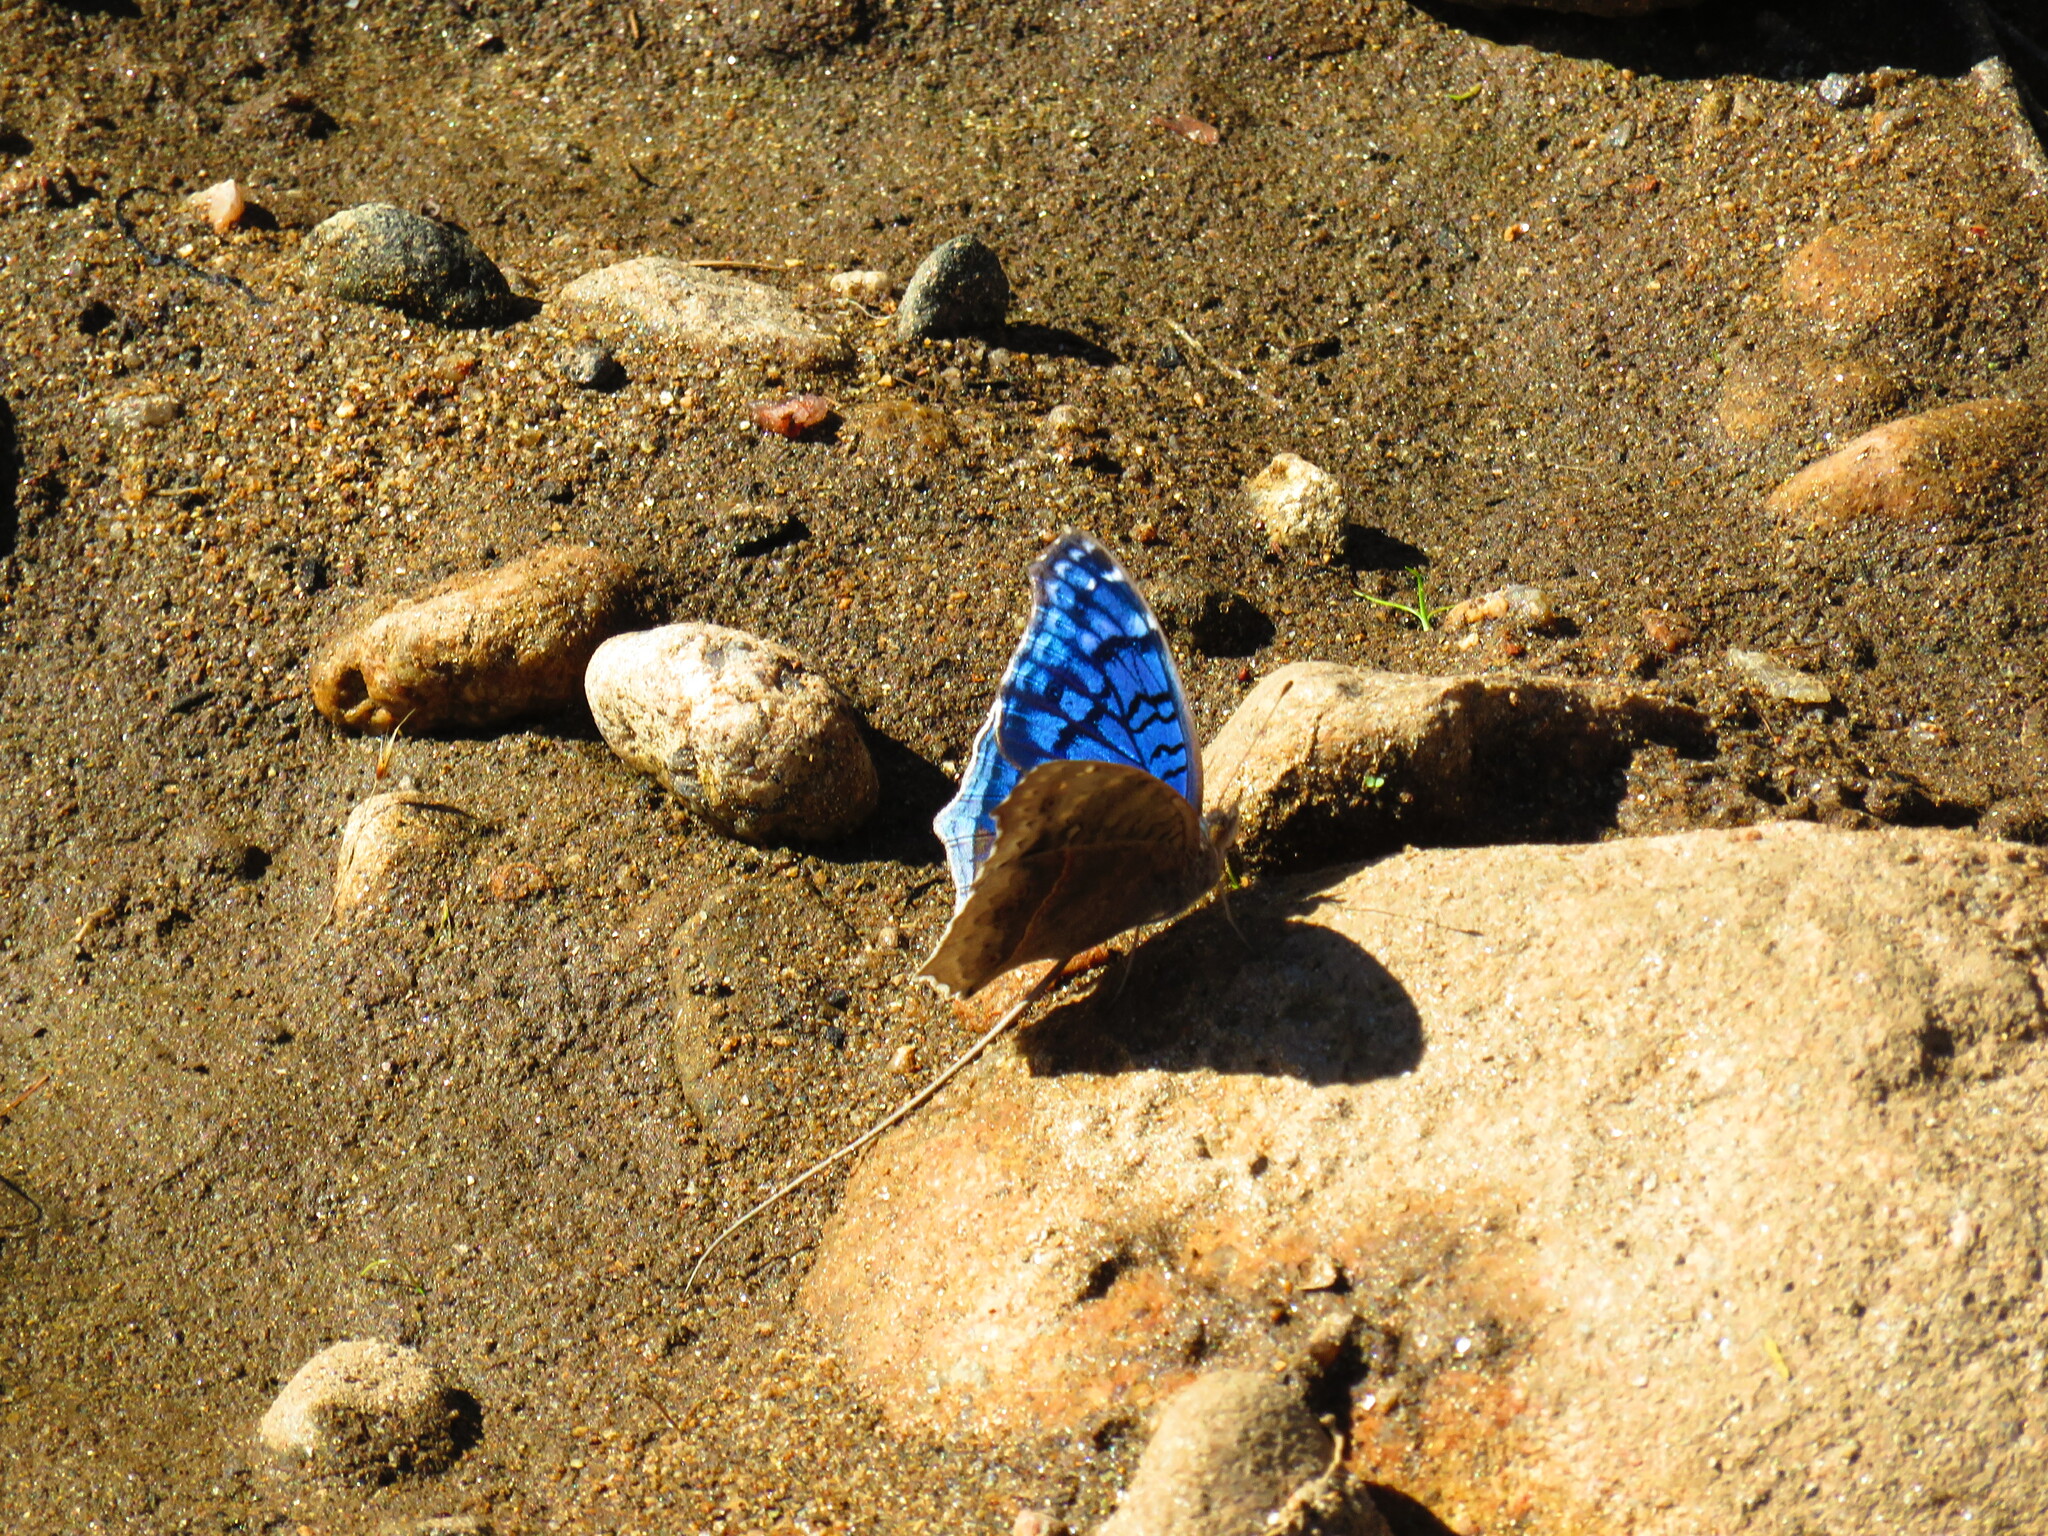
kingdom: Animalia
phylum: Arthropoda
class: Insecta
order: Lepidoptera
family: Nymphalidae
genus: Junonia
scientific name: Junonia rhadama
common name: Royal blue pansy
